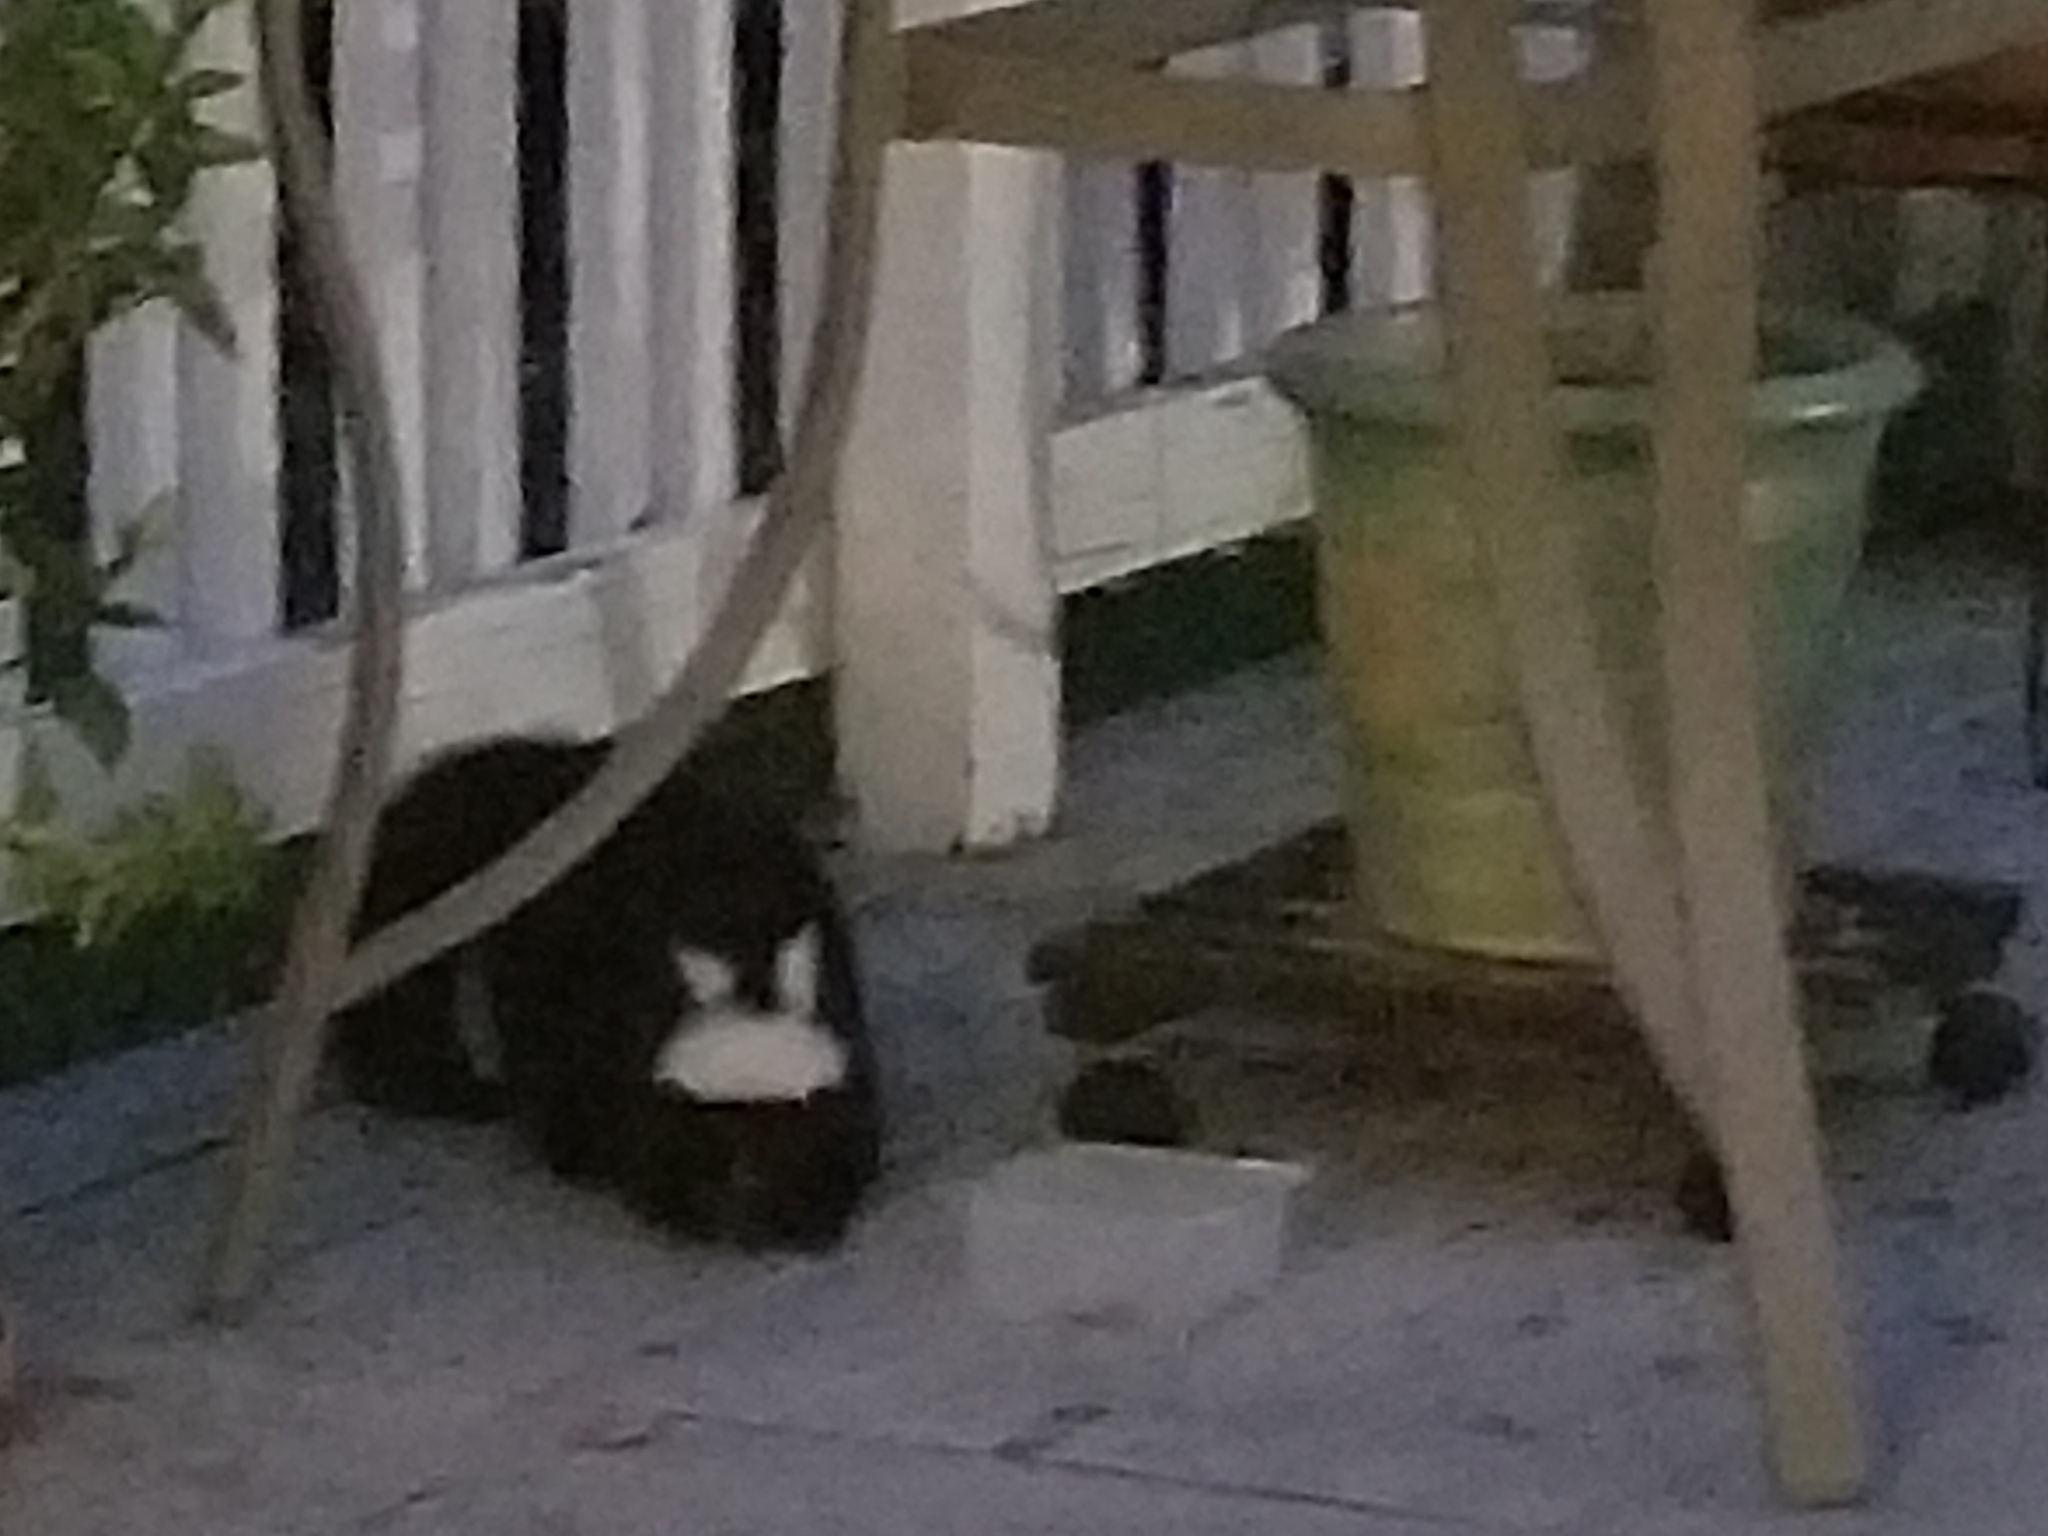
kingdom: Animalia
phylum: Chordata
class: Mammalia
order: Carnivora
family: Mephitidae
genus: Mephitis
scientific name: Mephitis mephitis
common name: Striped skunk
